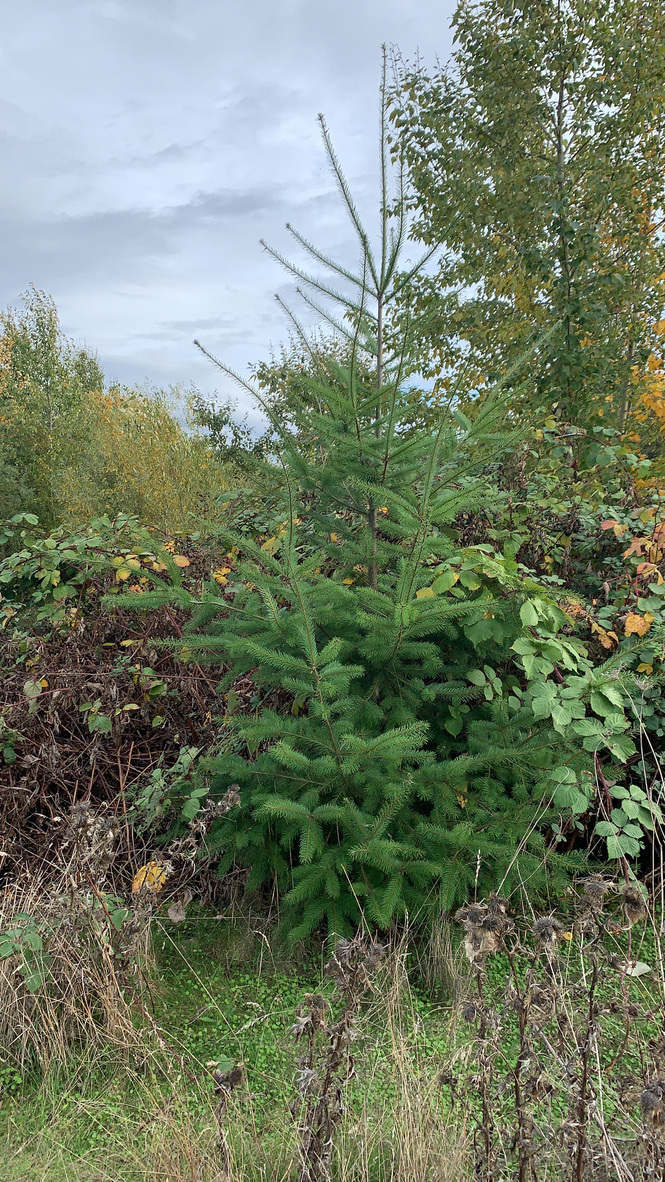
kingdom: Plantae
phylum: Tracheophyta
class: Pinopsida
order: Pinales
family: Pinaceae
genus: Pseudotsuga
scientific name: Pseudotsuga menziesii
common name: Douglas fir
